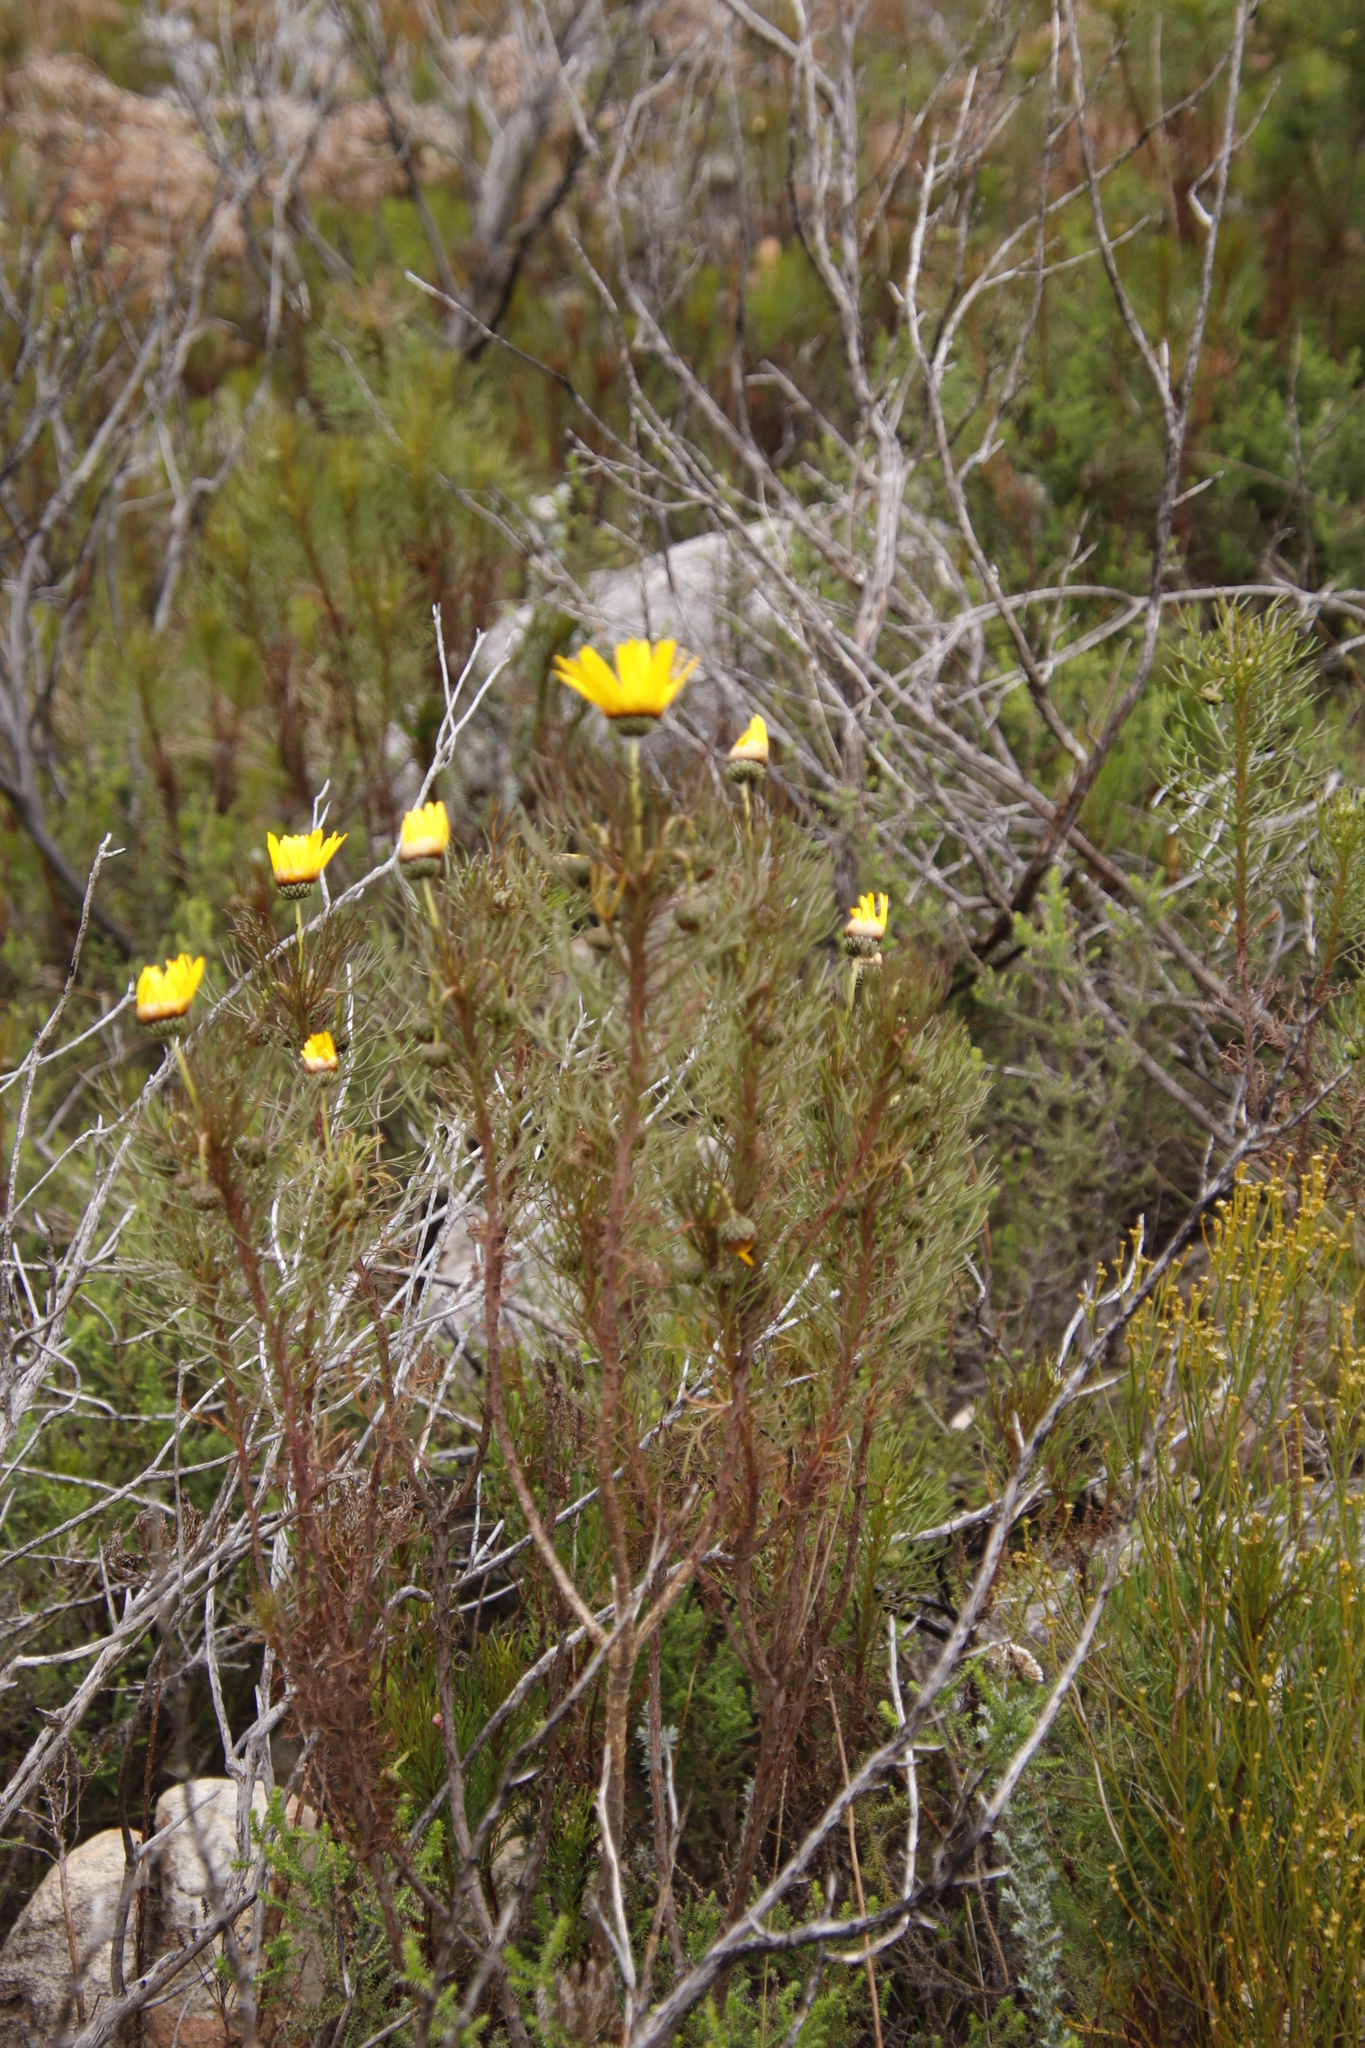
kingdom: Plantae
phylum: Tracheophyta
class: Magnoliopsida
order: Asterales
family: Asteraceae
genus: Ursinia
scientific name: Ursinia paleacea
